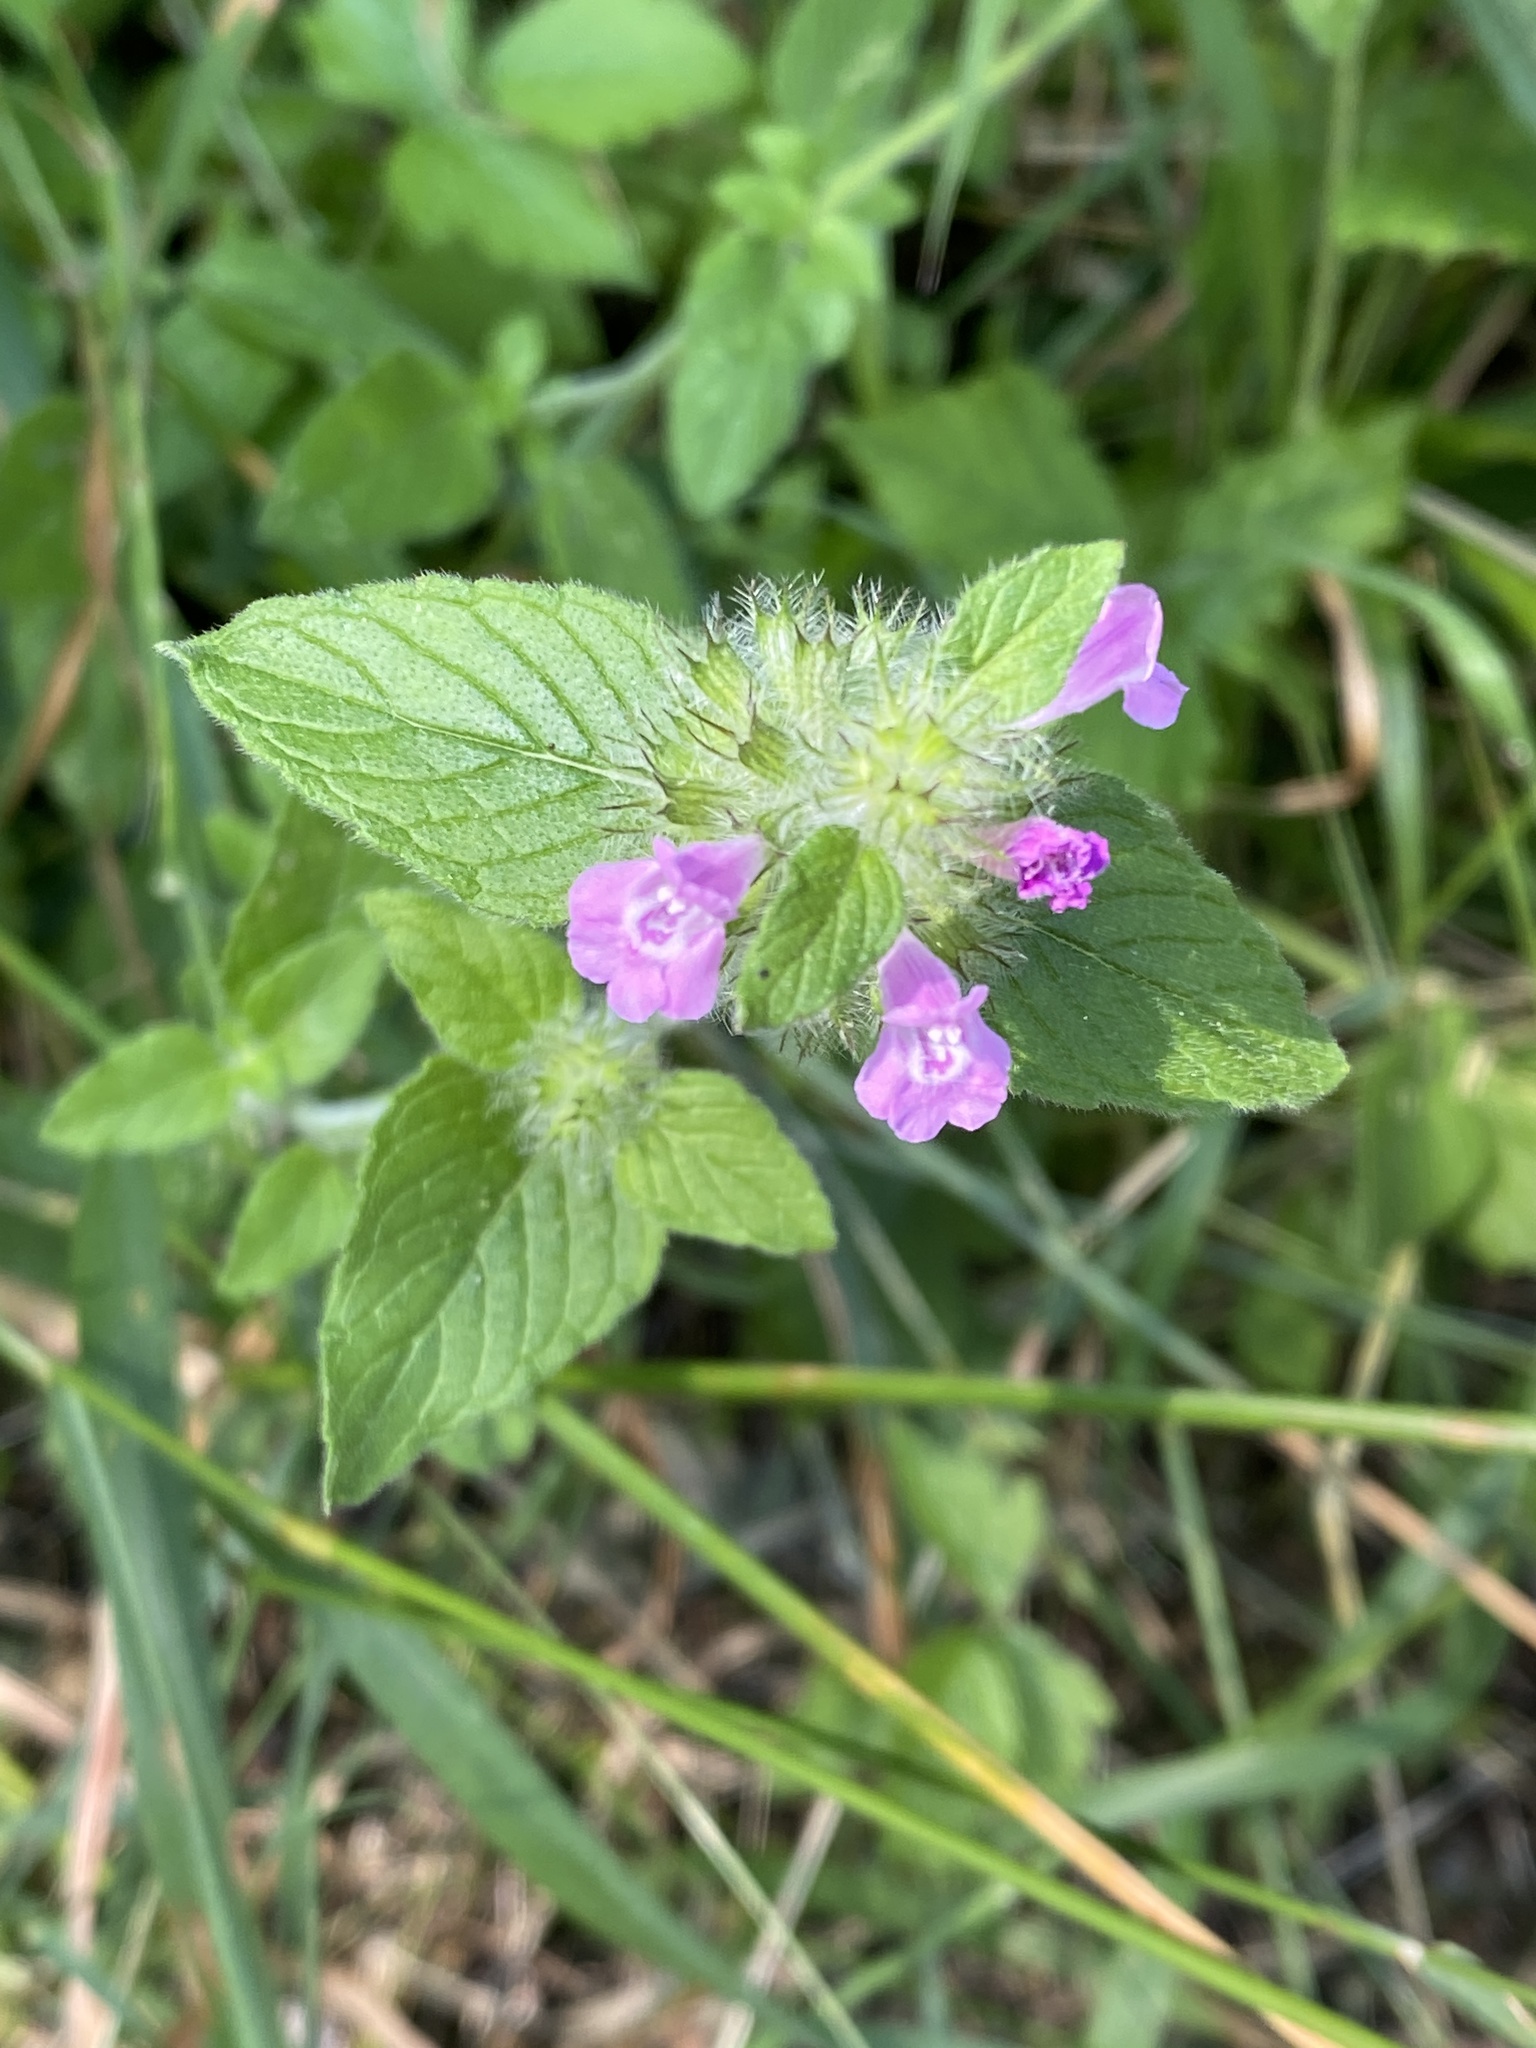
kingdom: Plantae
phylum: Tracheophyta
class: Magnoliopsida
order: Lamiales
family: Lamiaceae
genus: Clinopodium
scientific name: Clinopodium vulgare
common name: Wild basil
